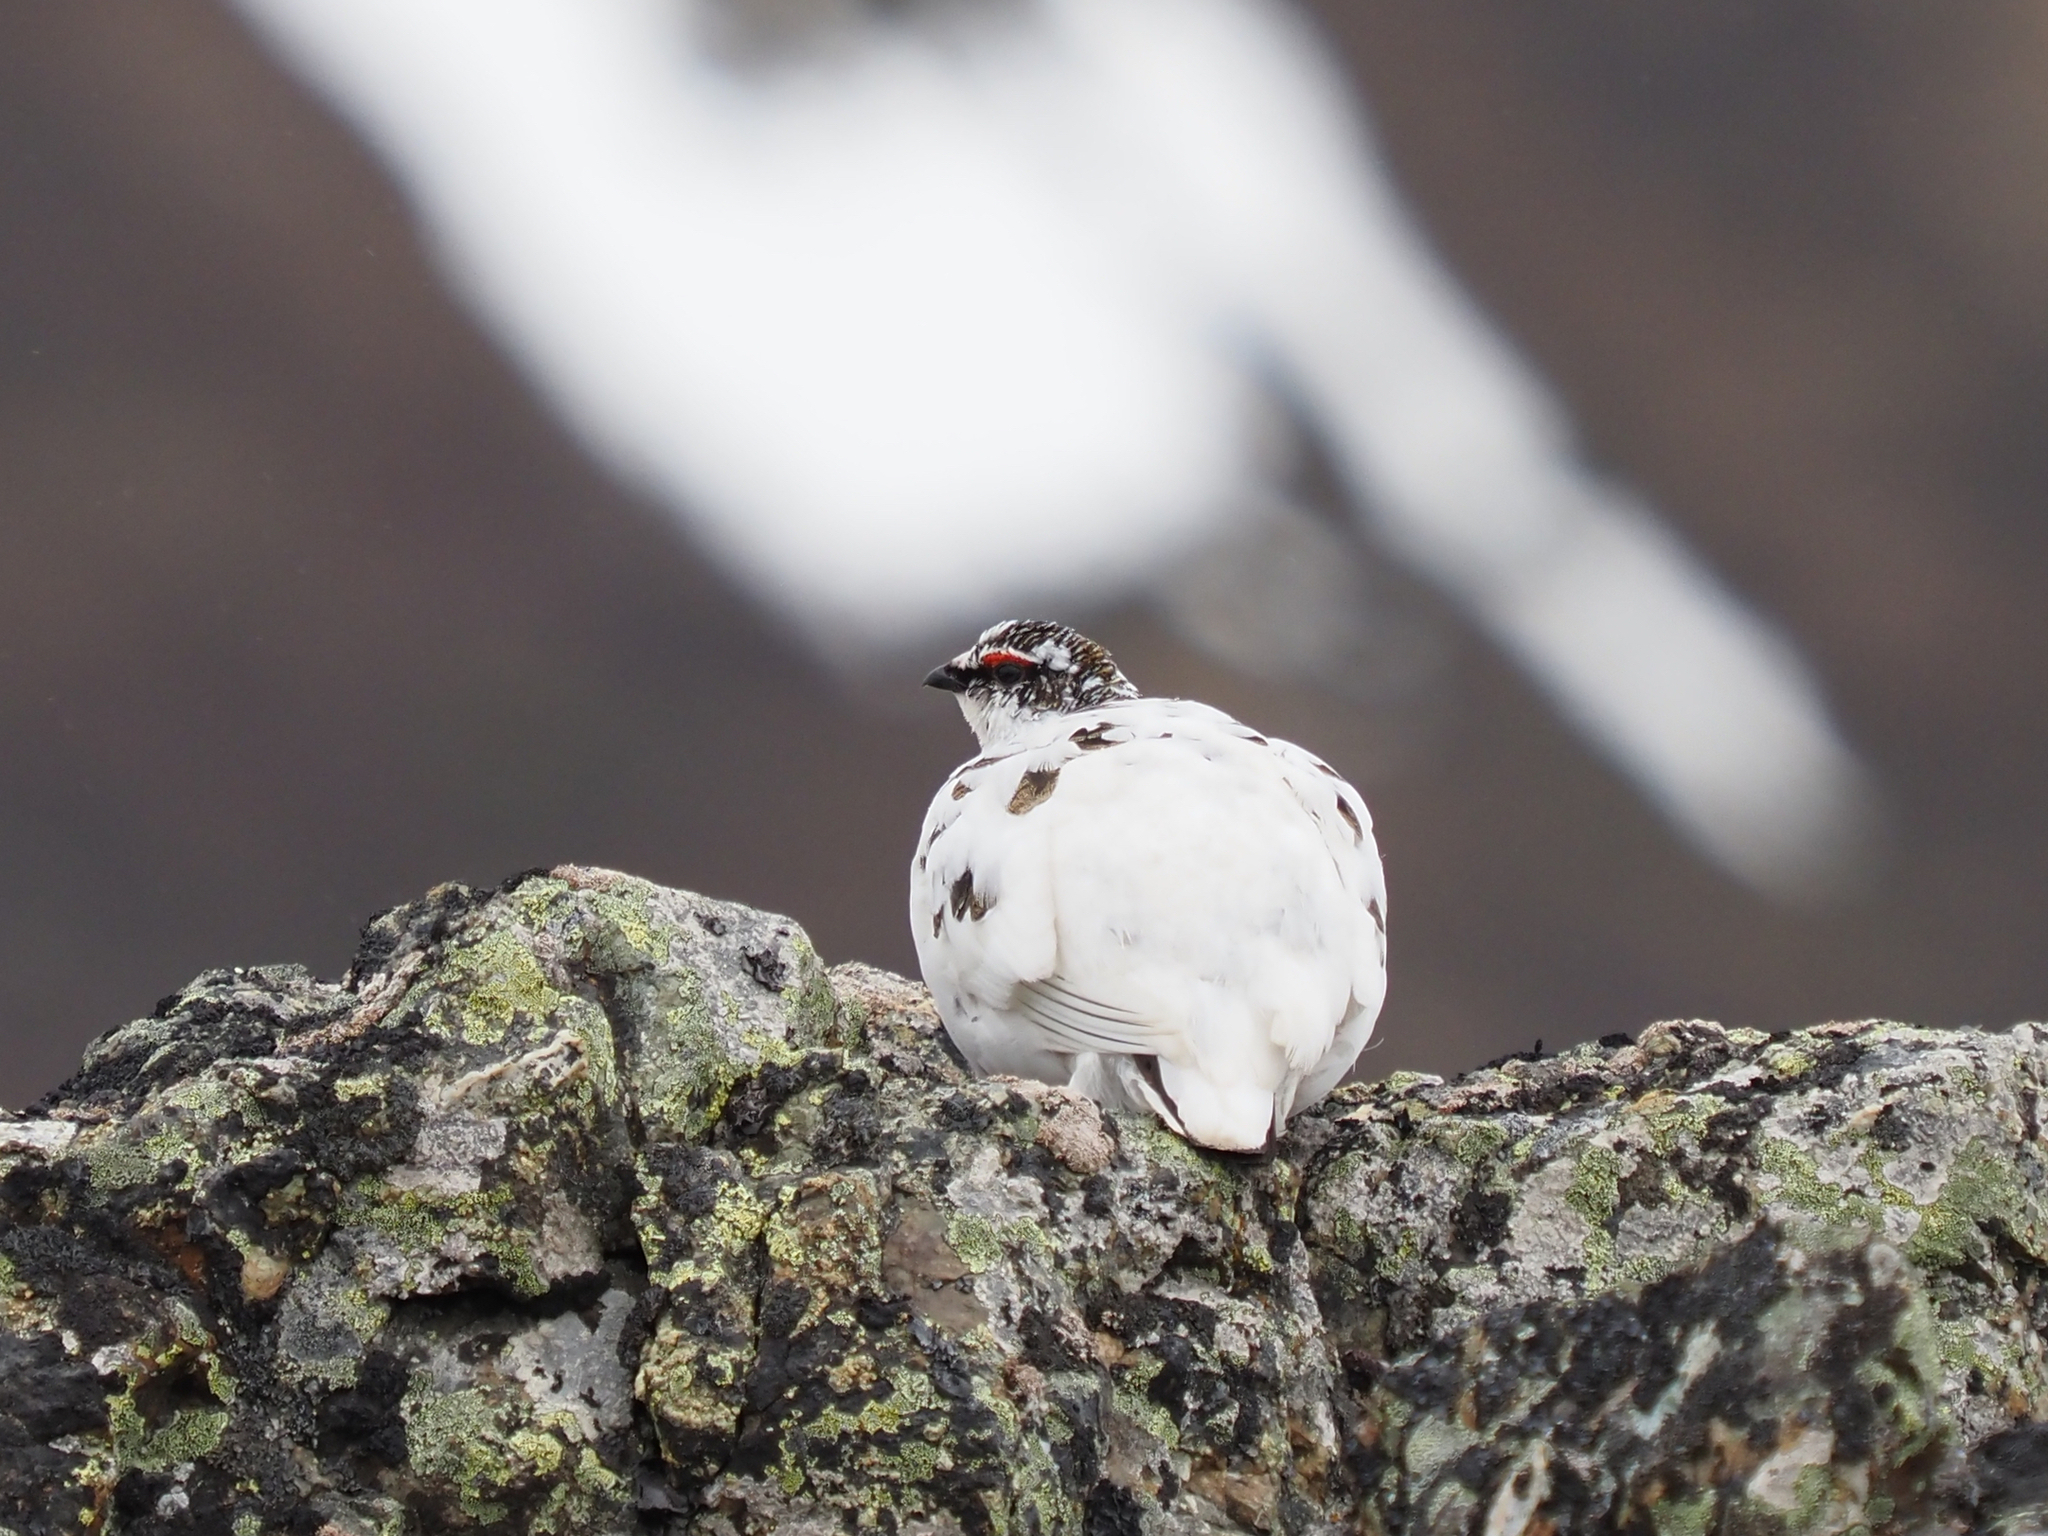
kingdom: Animalia
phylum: Chordata
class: Aves
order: Galliformes
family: Phasianidae
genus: Lagopus
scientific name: Lagopus muta
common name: Rock ptarmigan
